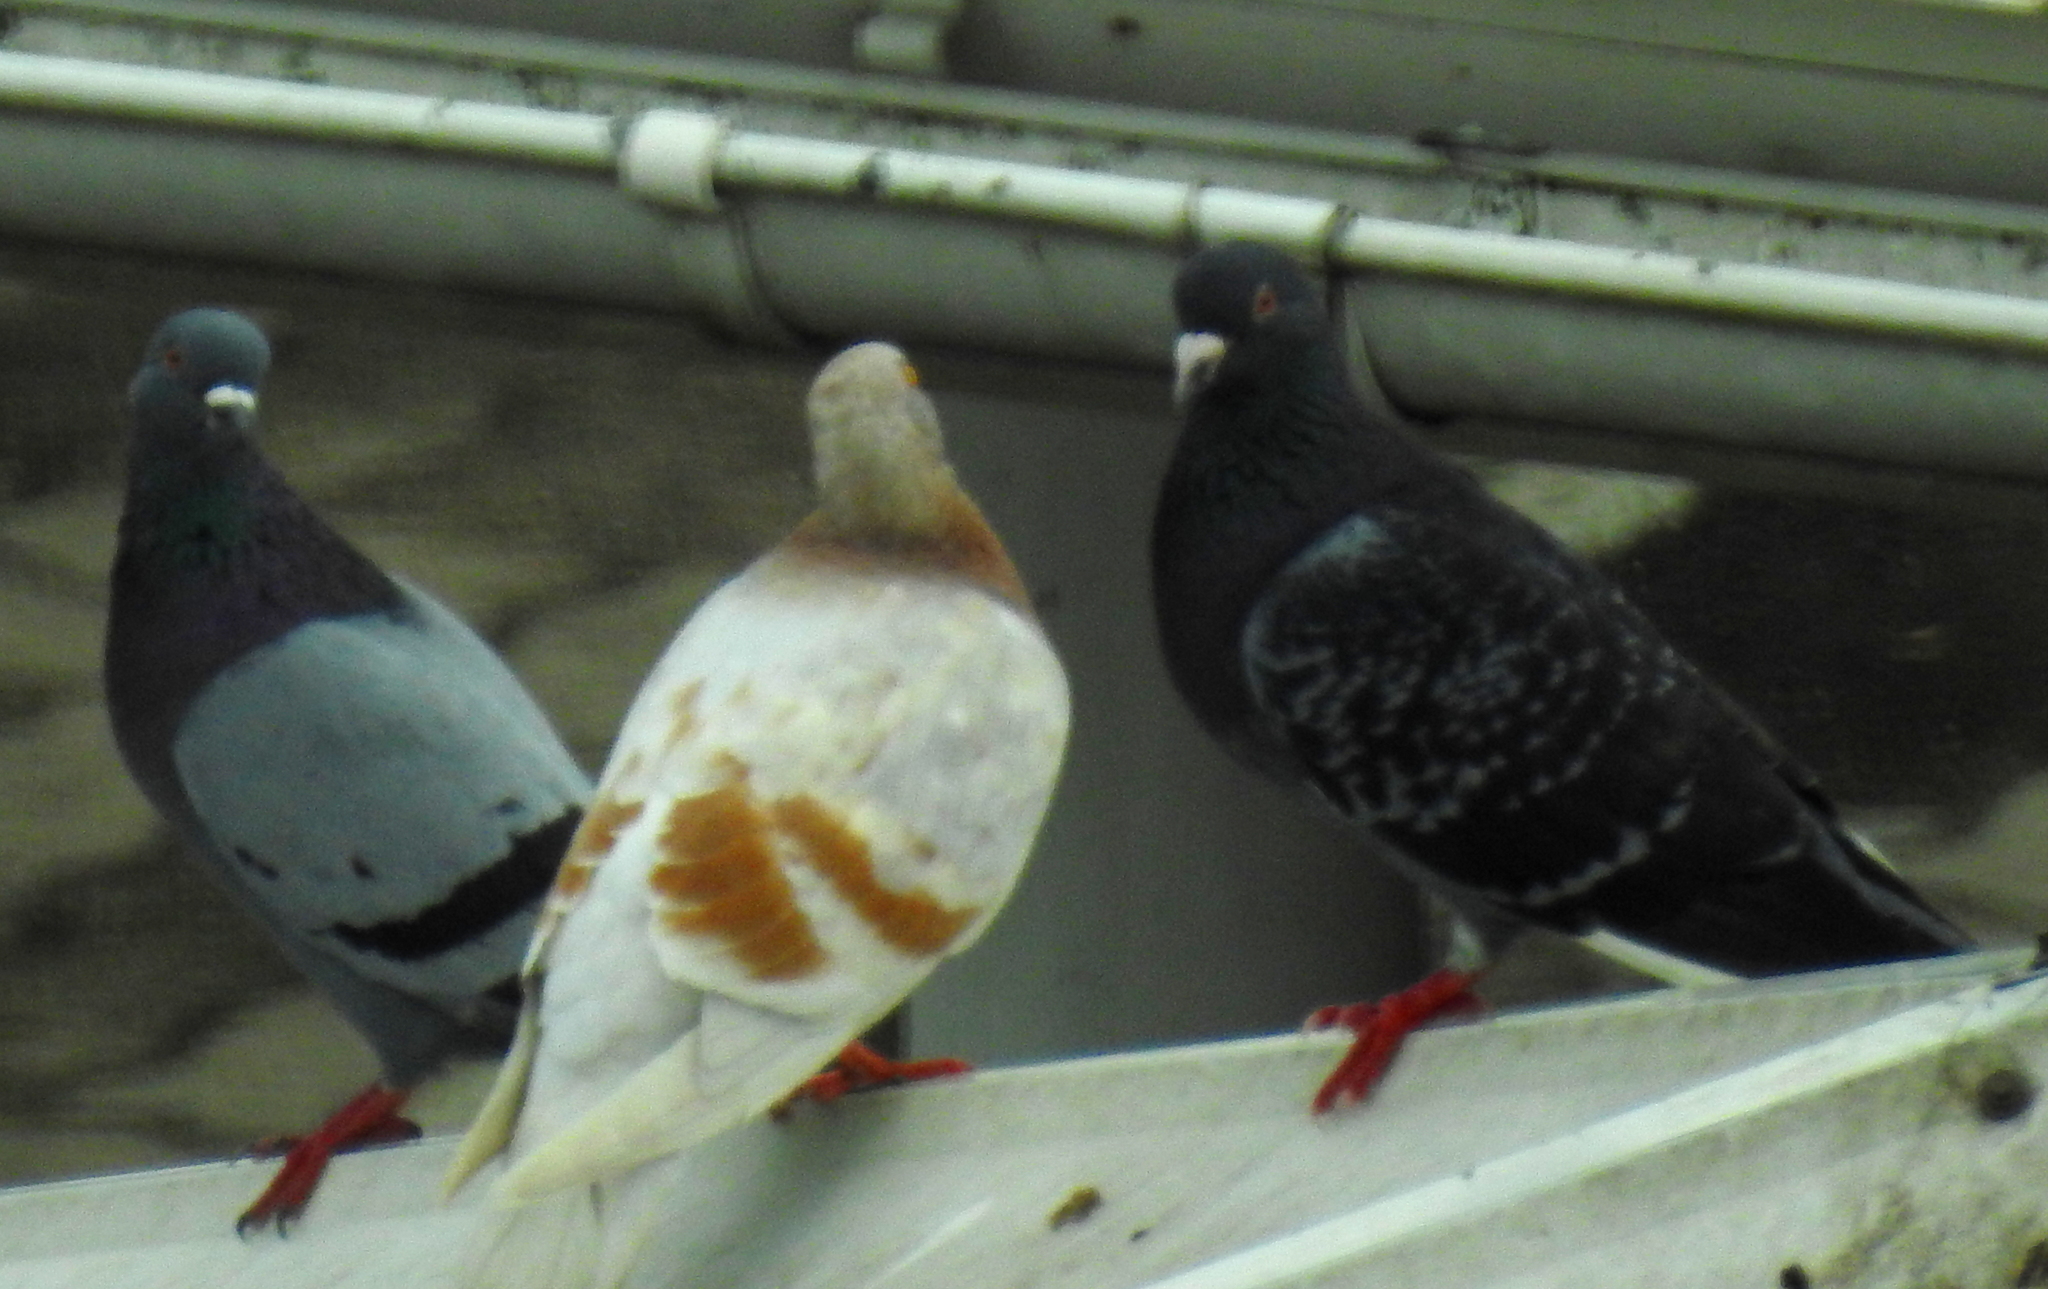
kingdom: Animalia
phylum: Chordata
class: Aves
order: Columbiformes
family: Columbidae
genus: Columba
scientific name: Columba livia
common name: Rock pigeon
